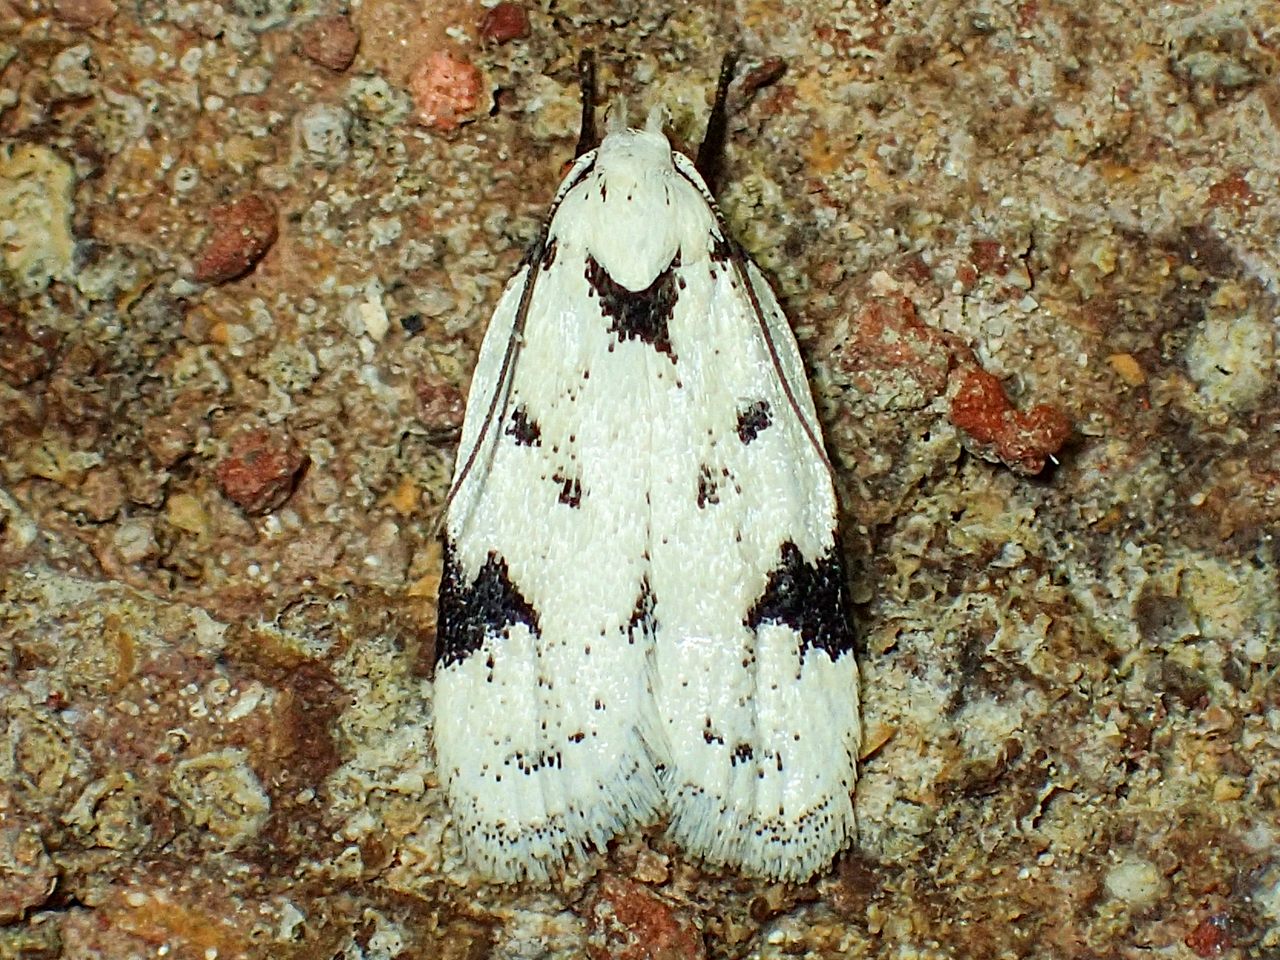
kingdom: Animalia
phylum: Arthropoda
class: Insecta
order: Lepidoptera
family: Oecophoridae
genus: Inga
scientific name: Inga sparsiciliella
